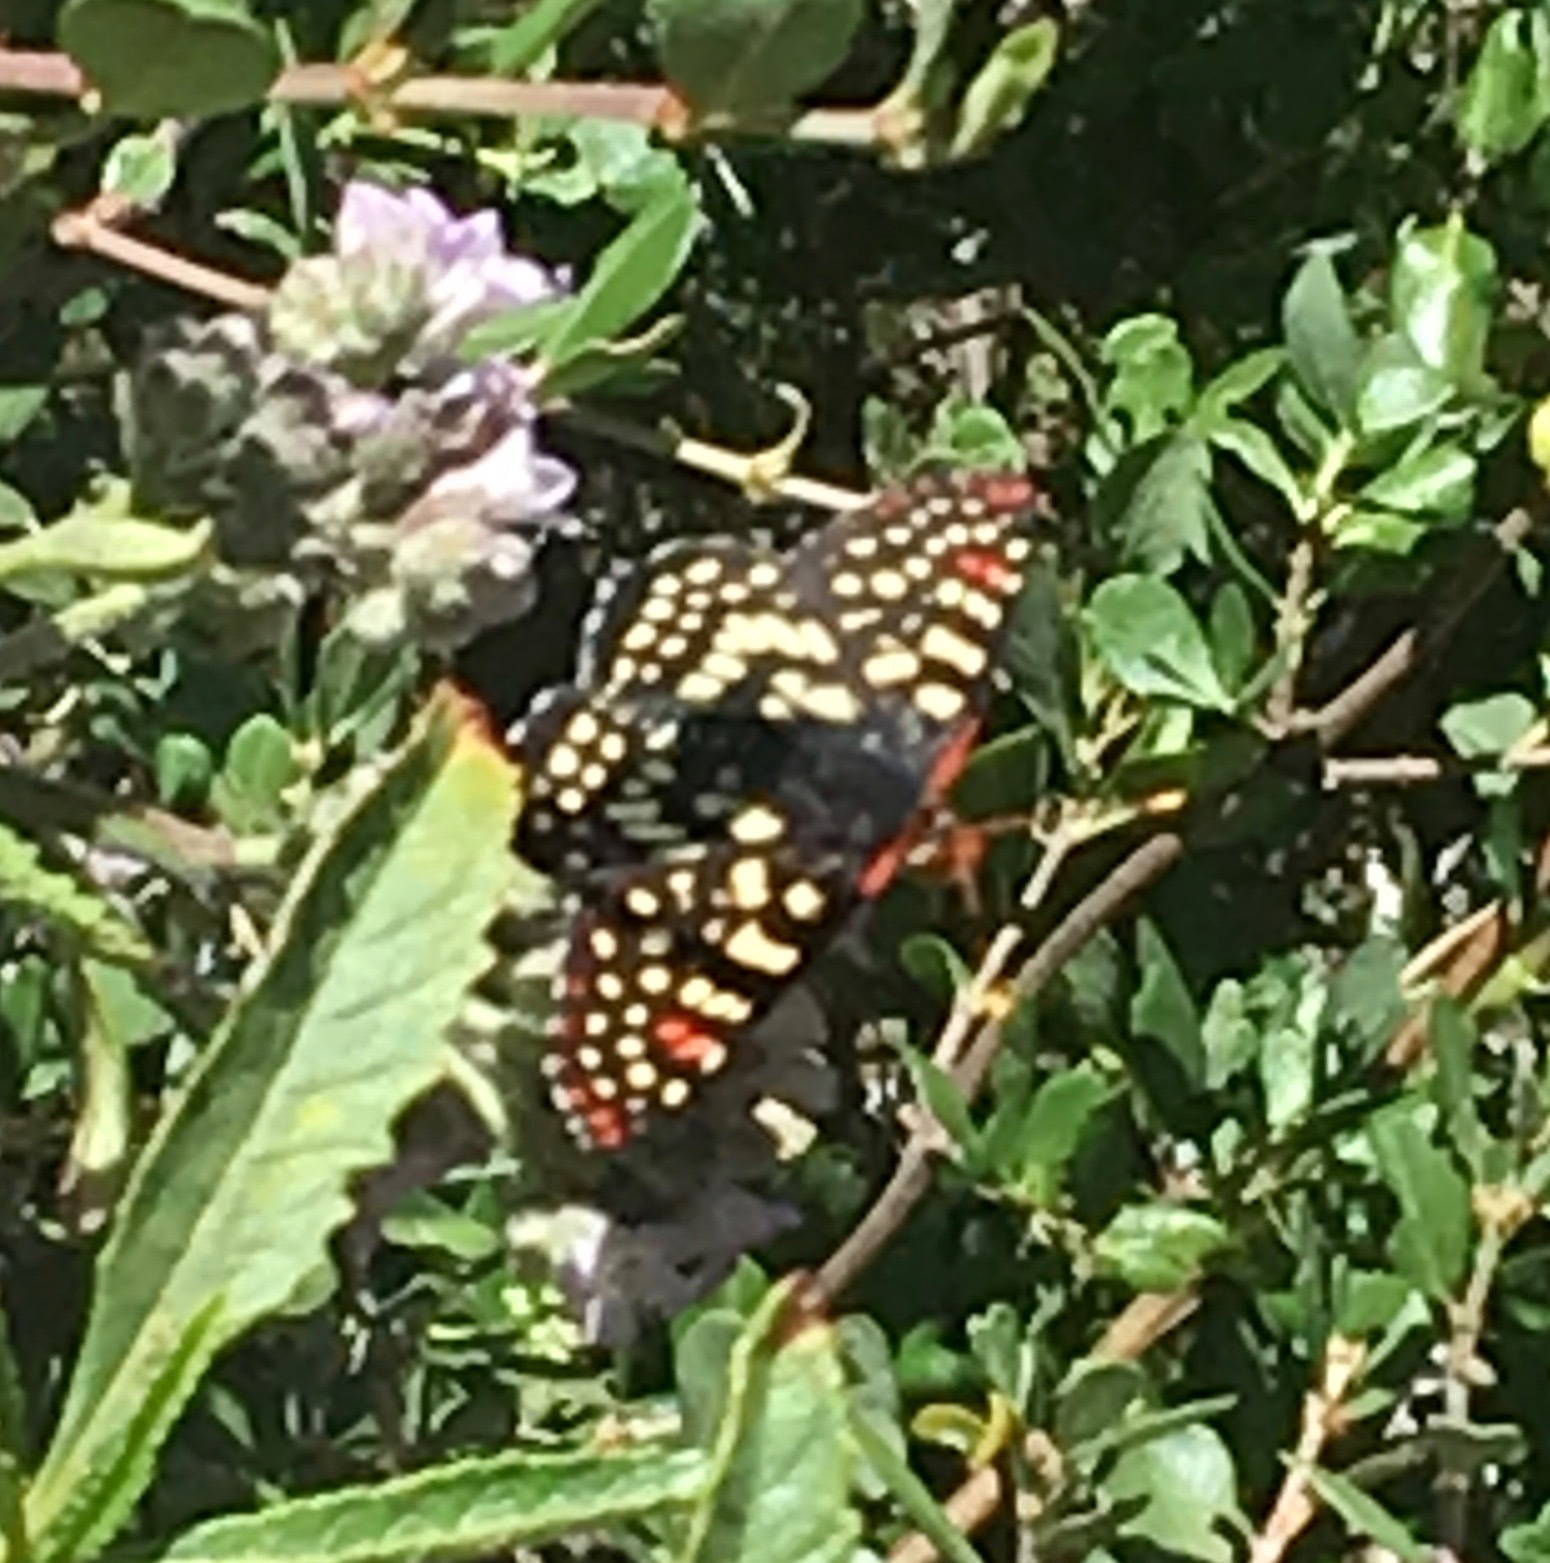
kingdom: Animalia
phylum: Arthropoda
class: Insecta
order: Lepidoptera
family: Nymphalidae
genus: Occidryas
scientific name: Occidryas chalcedona
